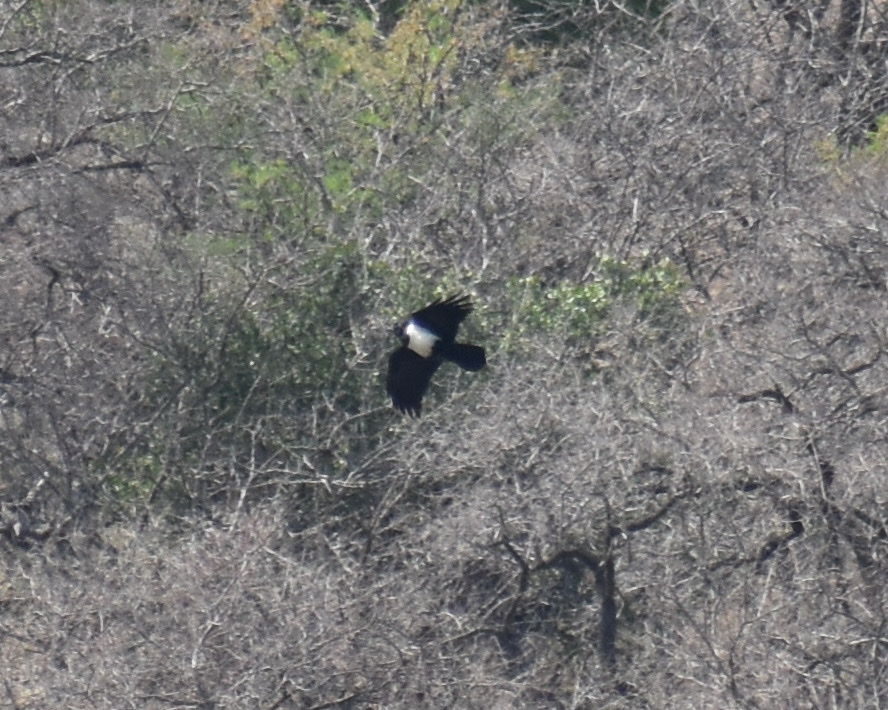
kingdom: Animalia
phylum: Chordata
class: Aves
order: Passeriformes
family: Corvidae
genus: Corvus
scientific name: Corvus albus
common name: Pied crow
